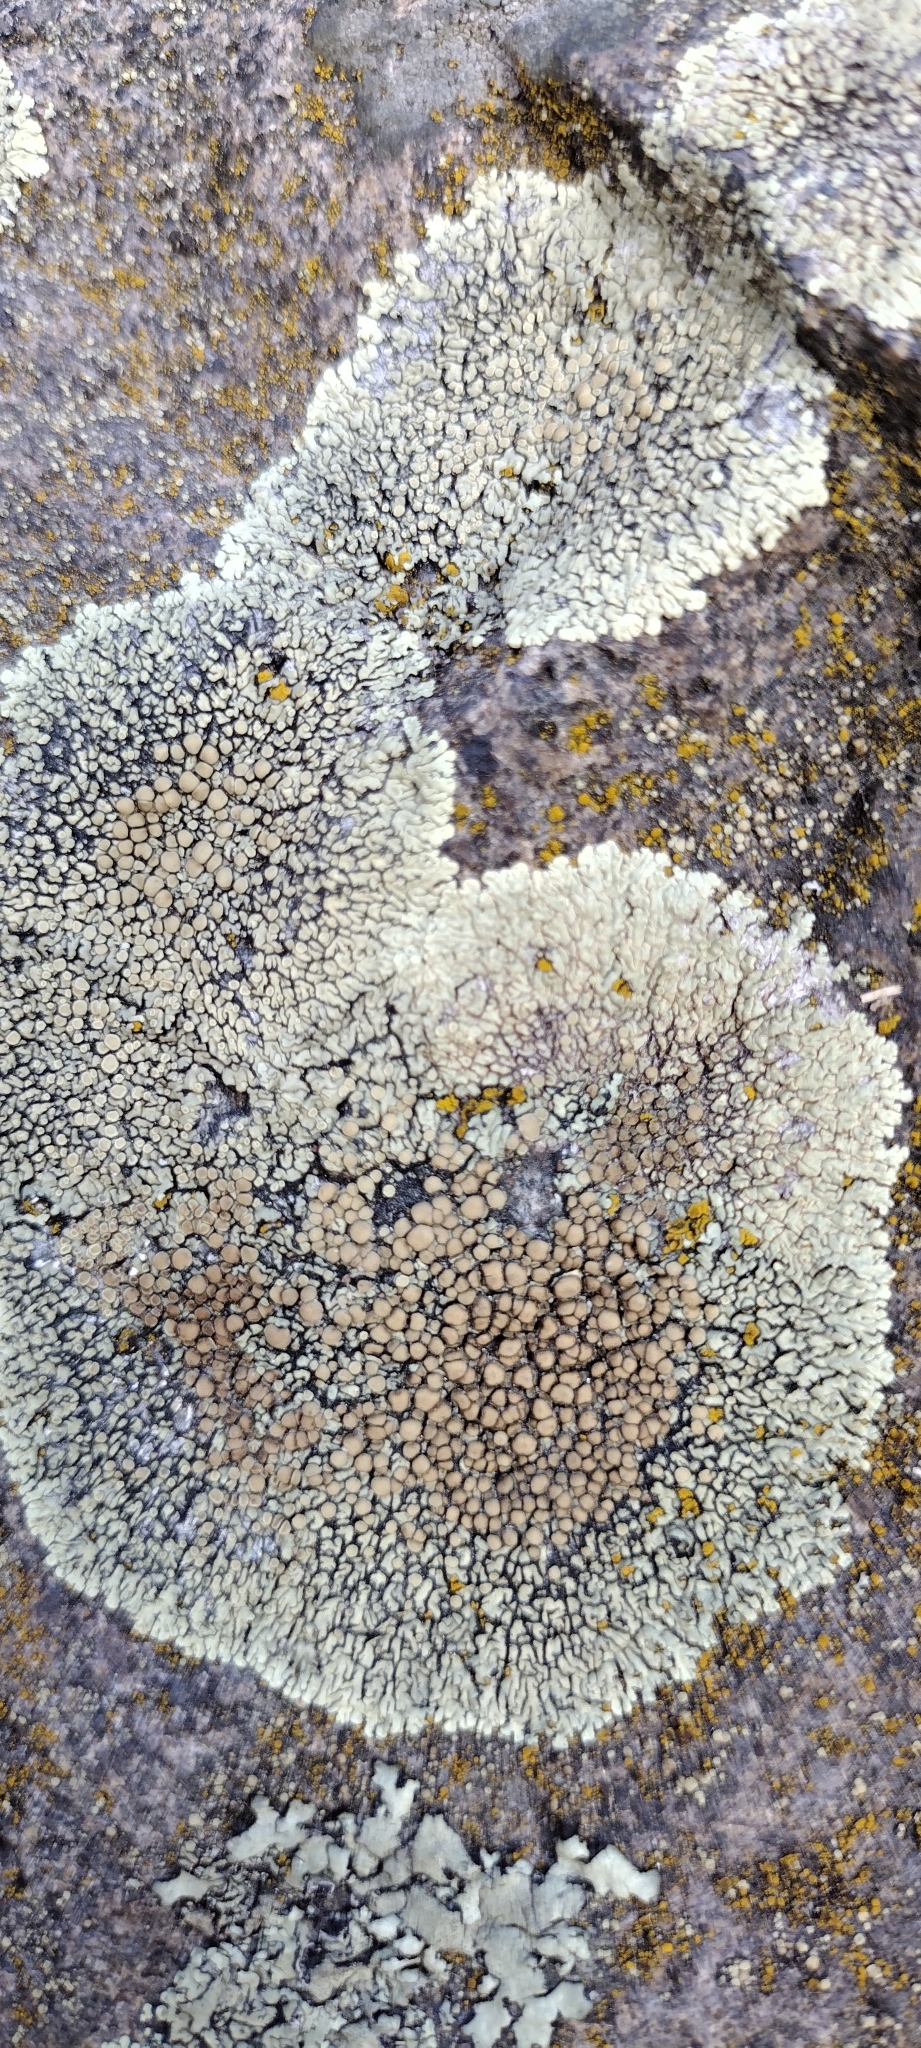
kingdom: Fungi
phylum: Ascomycota
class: Lecanoromycetes
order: Lecanorales
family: Lecanoraceae
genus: Protoparmeliopsis
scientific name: Protoparmeliopsis muralis
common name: Stonewall rim lichen
